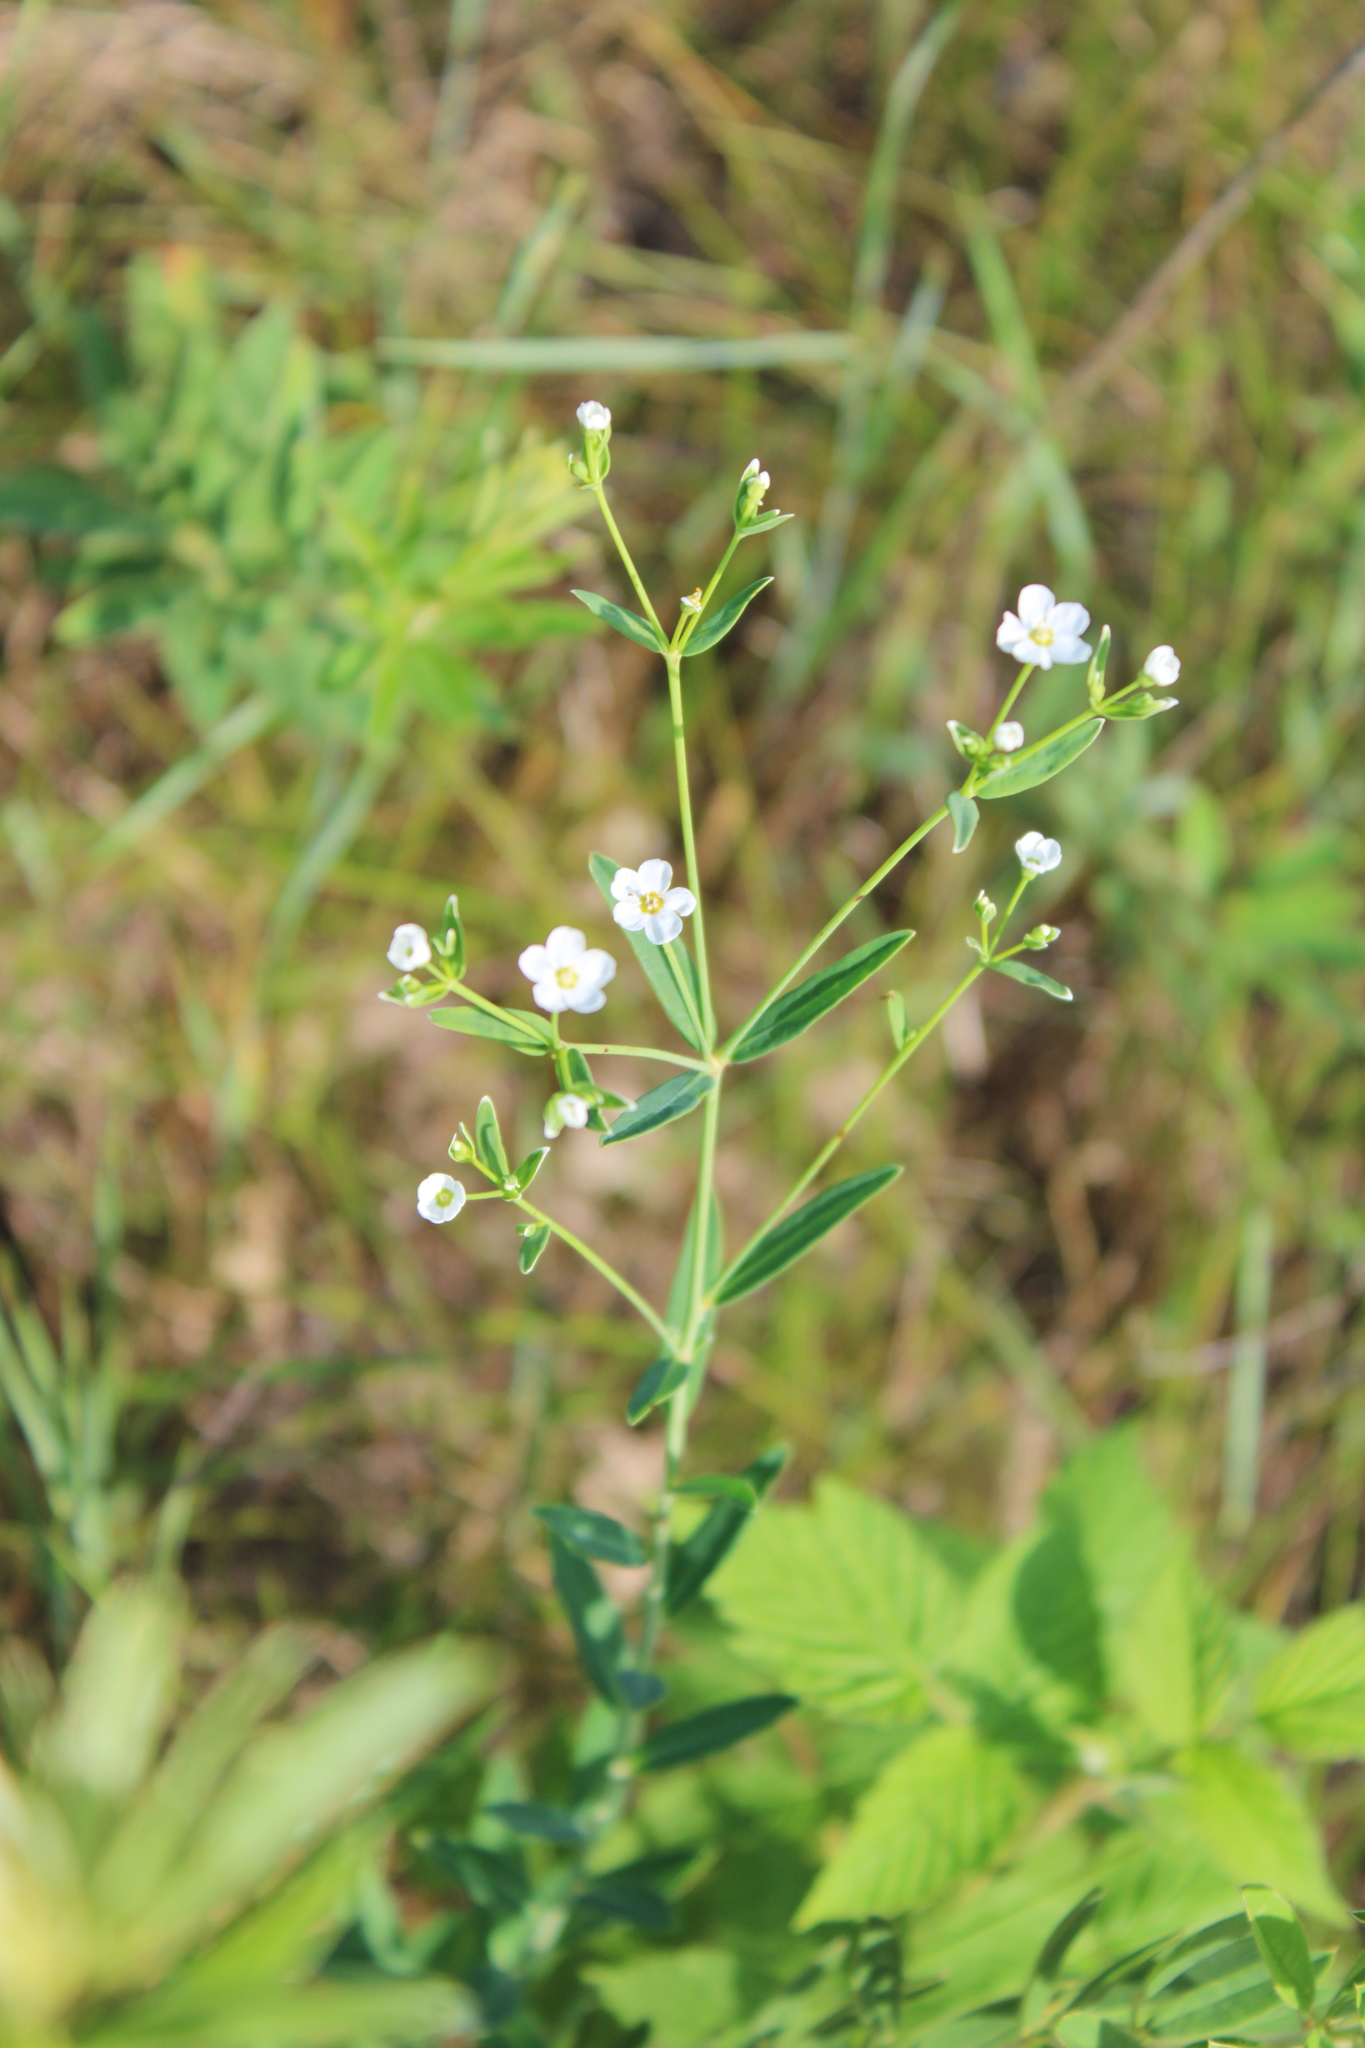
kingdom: Plantae
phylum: Tracheophyta
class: Magnoliopsida
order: Malpighiales
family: Euphorbiaceae
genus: Euphorbia
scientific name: Euphorbia corollata
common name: Flowering spurge
